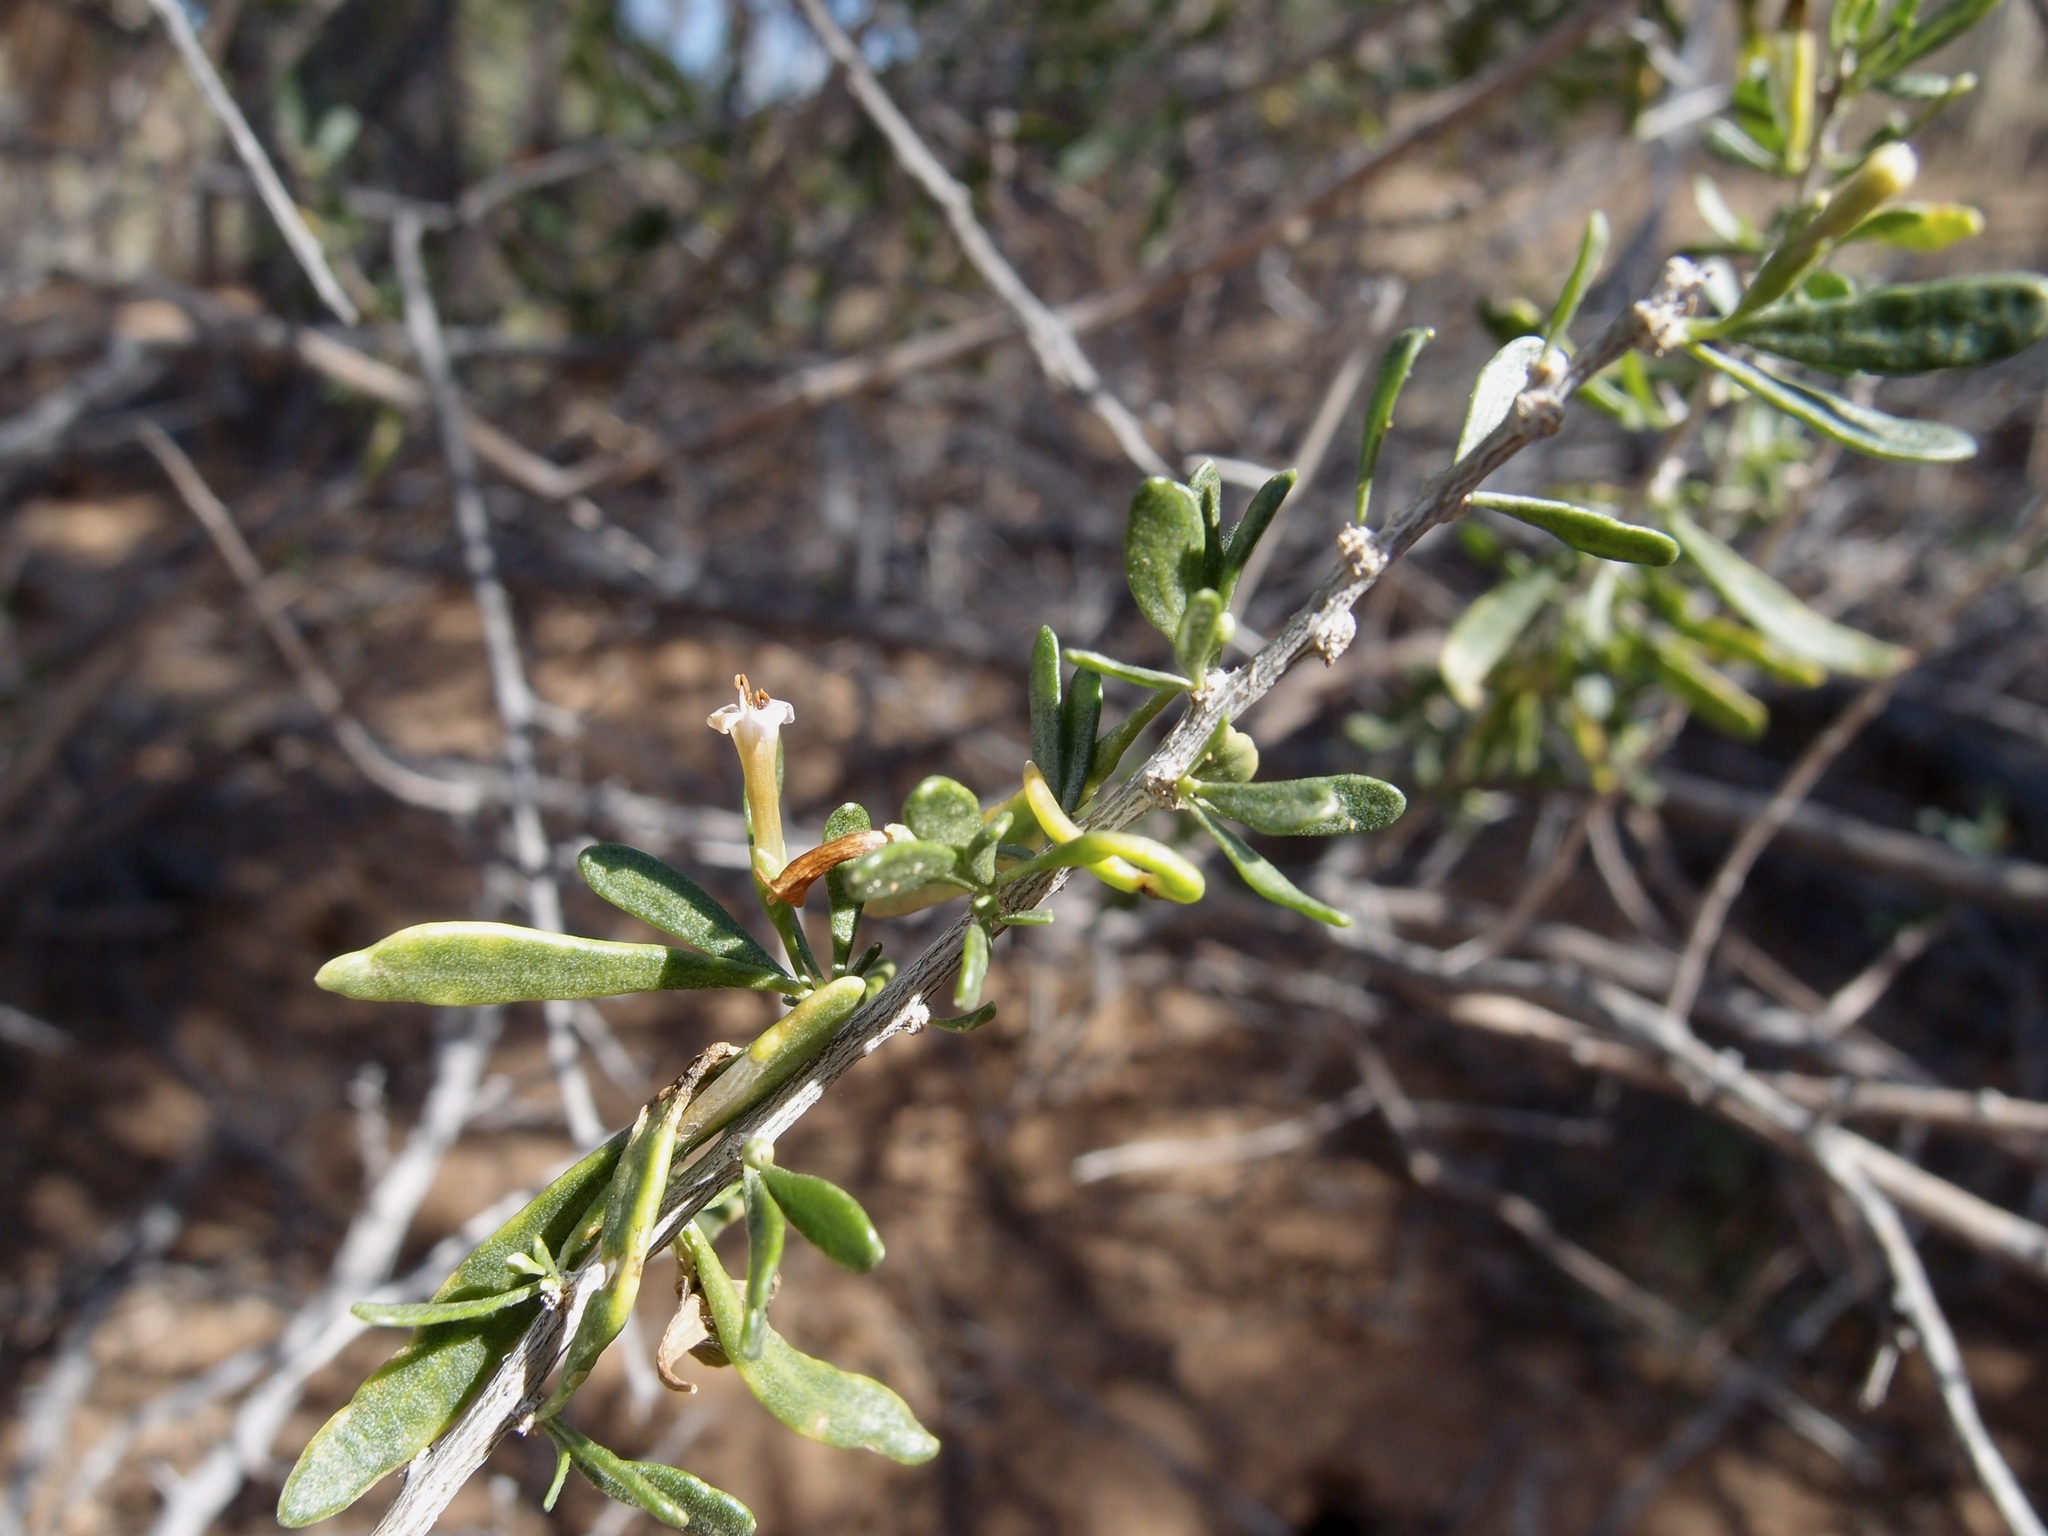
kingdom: Plantae
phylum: Tracheophyta
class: Magnoliopsida
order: Solanales
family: Solanaceae
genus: Lycium
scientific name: Lycium andersonii
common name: Water-jacket
